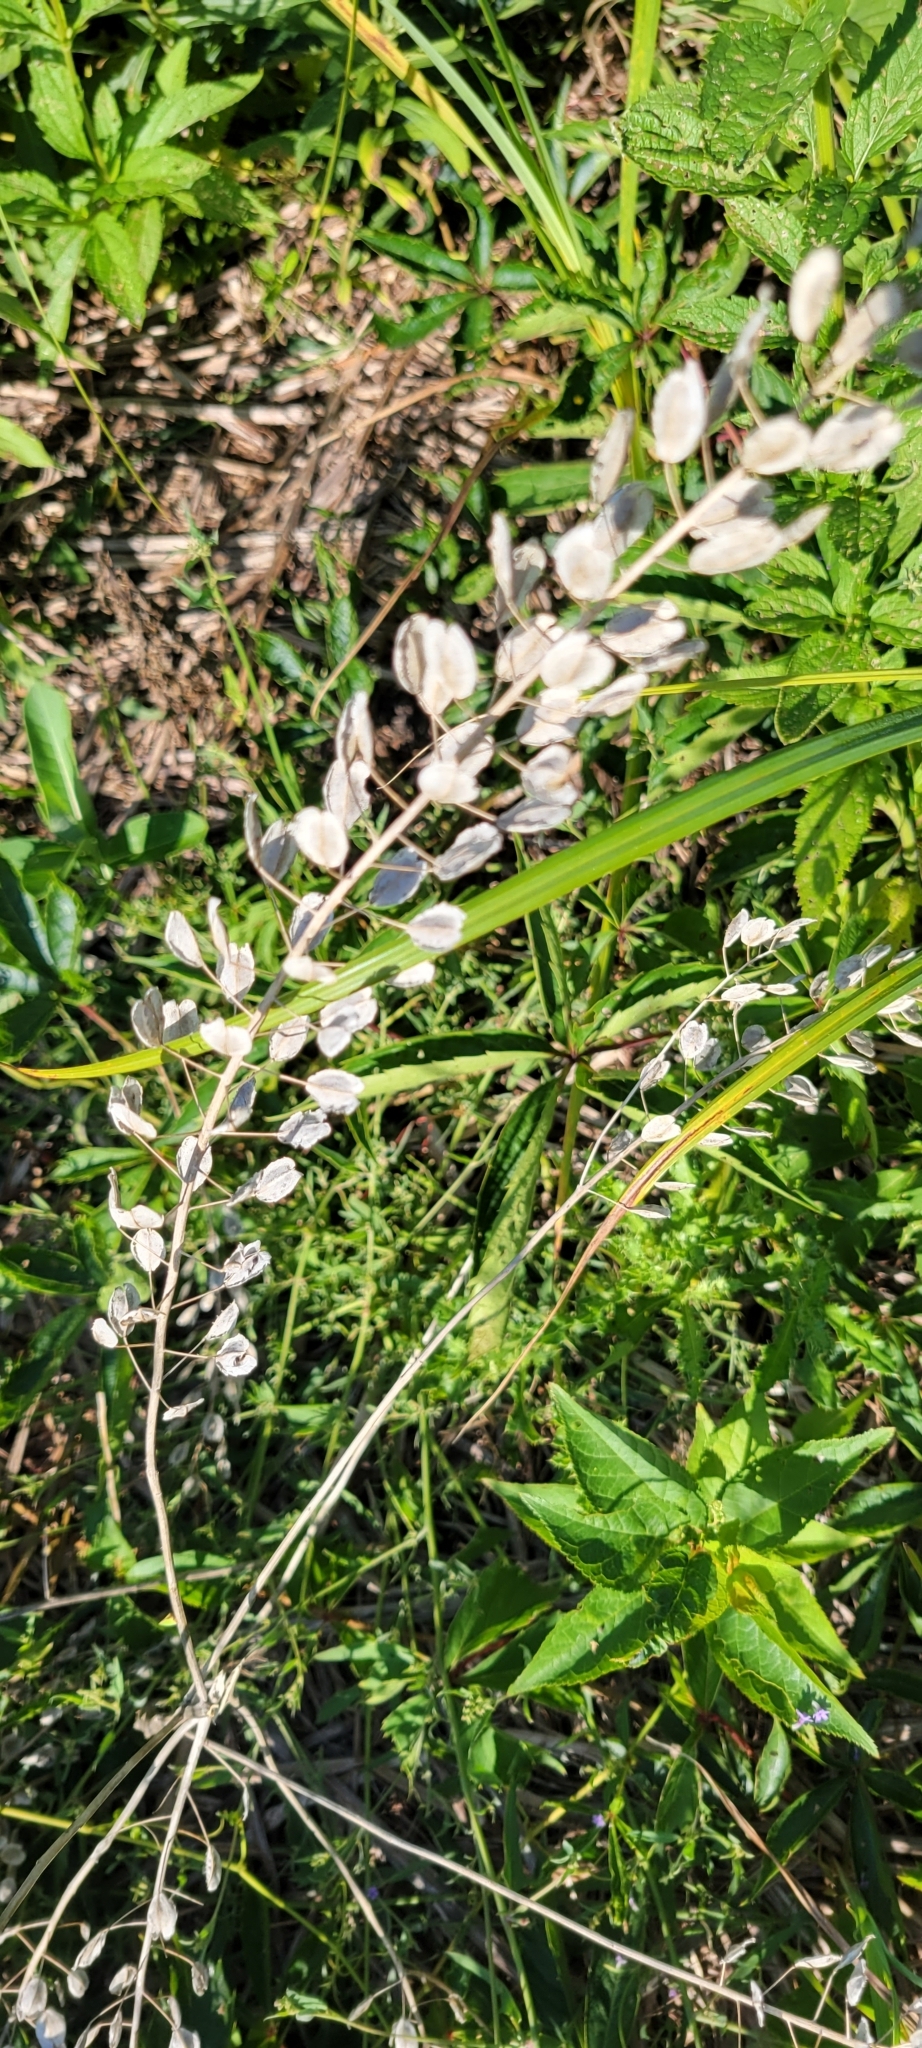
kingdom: Plantae
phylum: Tracheophyta
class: Magnoliopsida
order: Brassicales
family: Brassicaceae
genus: Thlaspi
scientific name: Thlaspi arvense
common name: Field pennycress
